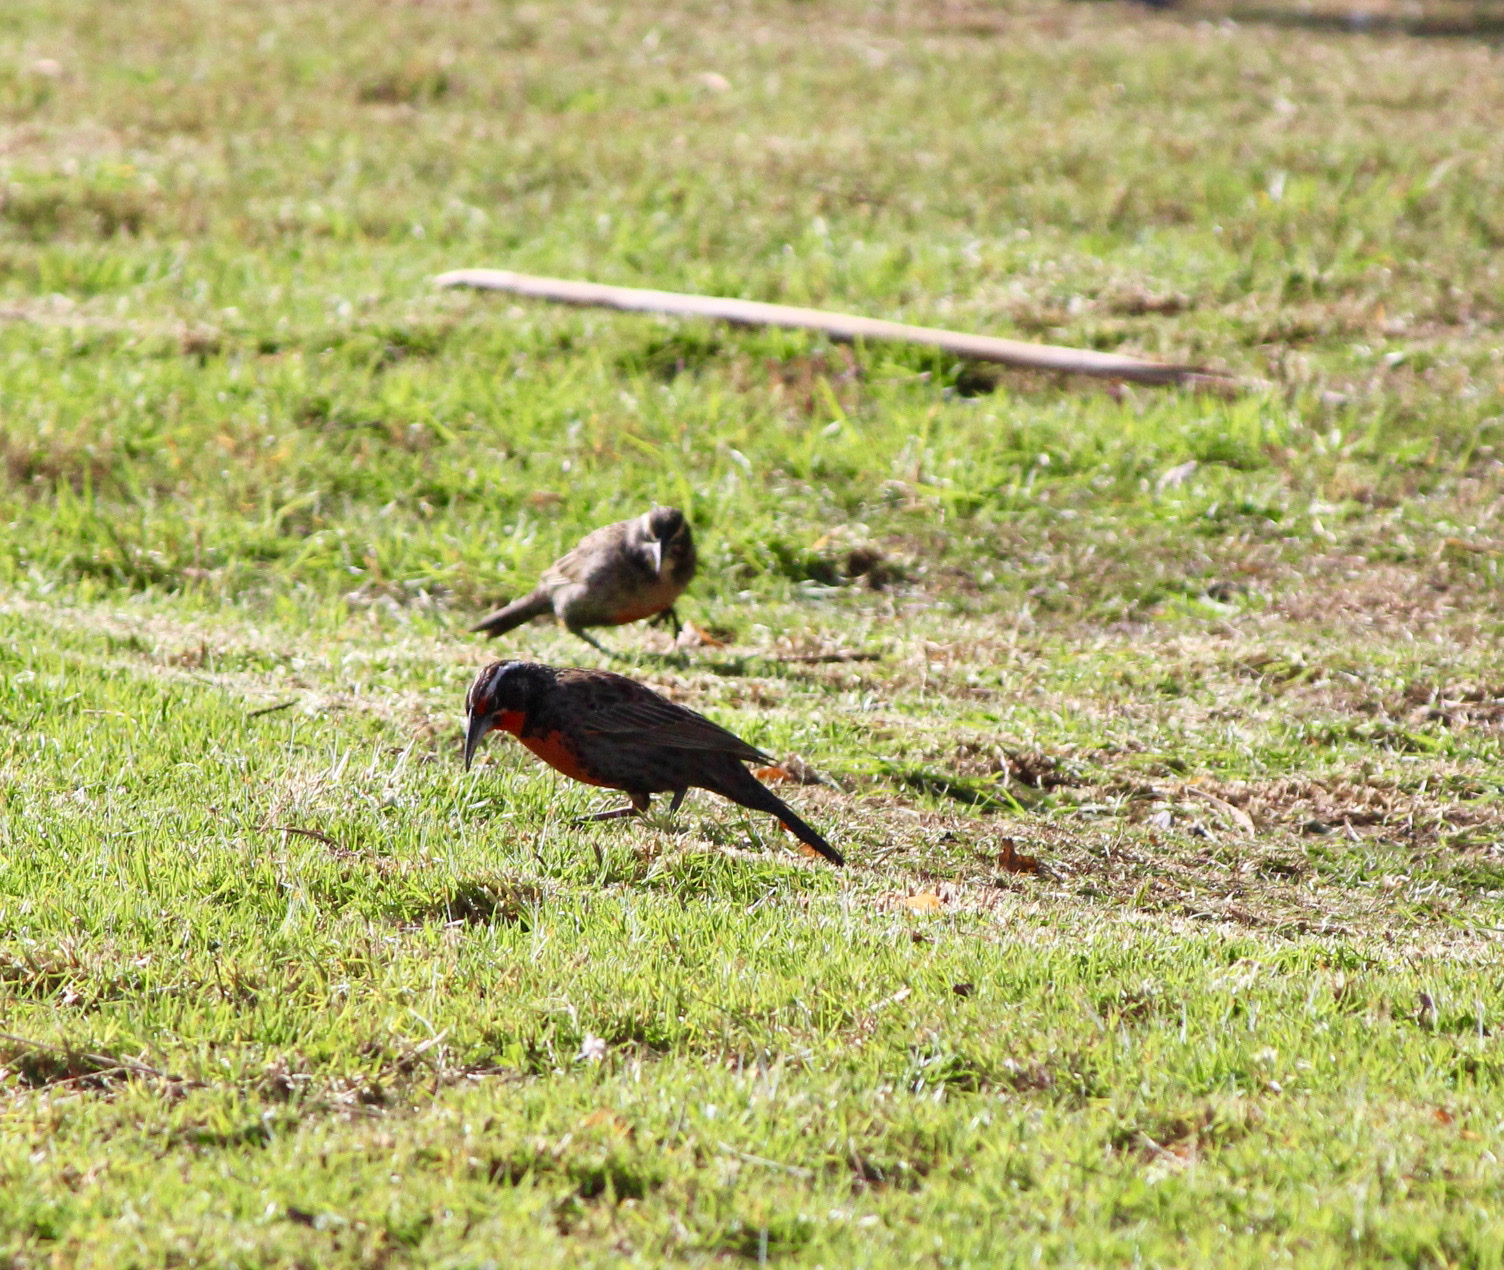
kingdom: Animalia
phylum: Chordata
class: Aves
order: Passeriformes
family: Icteridae
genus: Sturnella
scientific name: Sturnella loyca
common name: Long-tailed meadowlark
